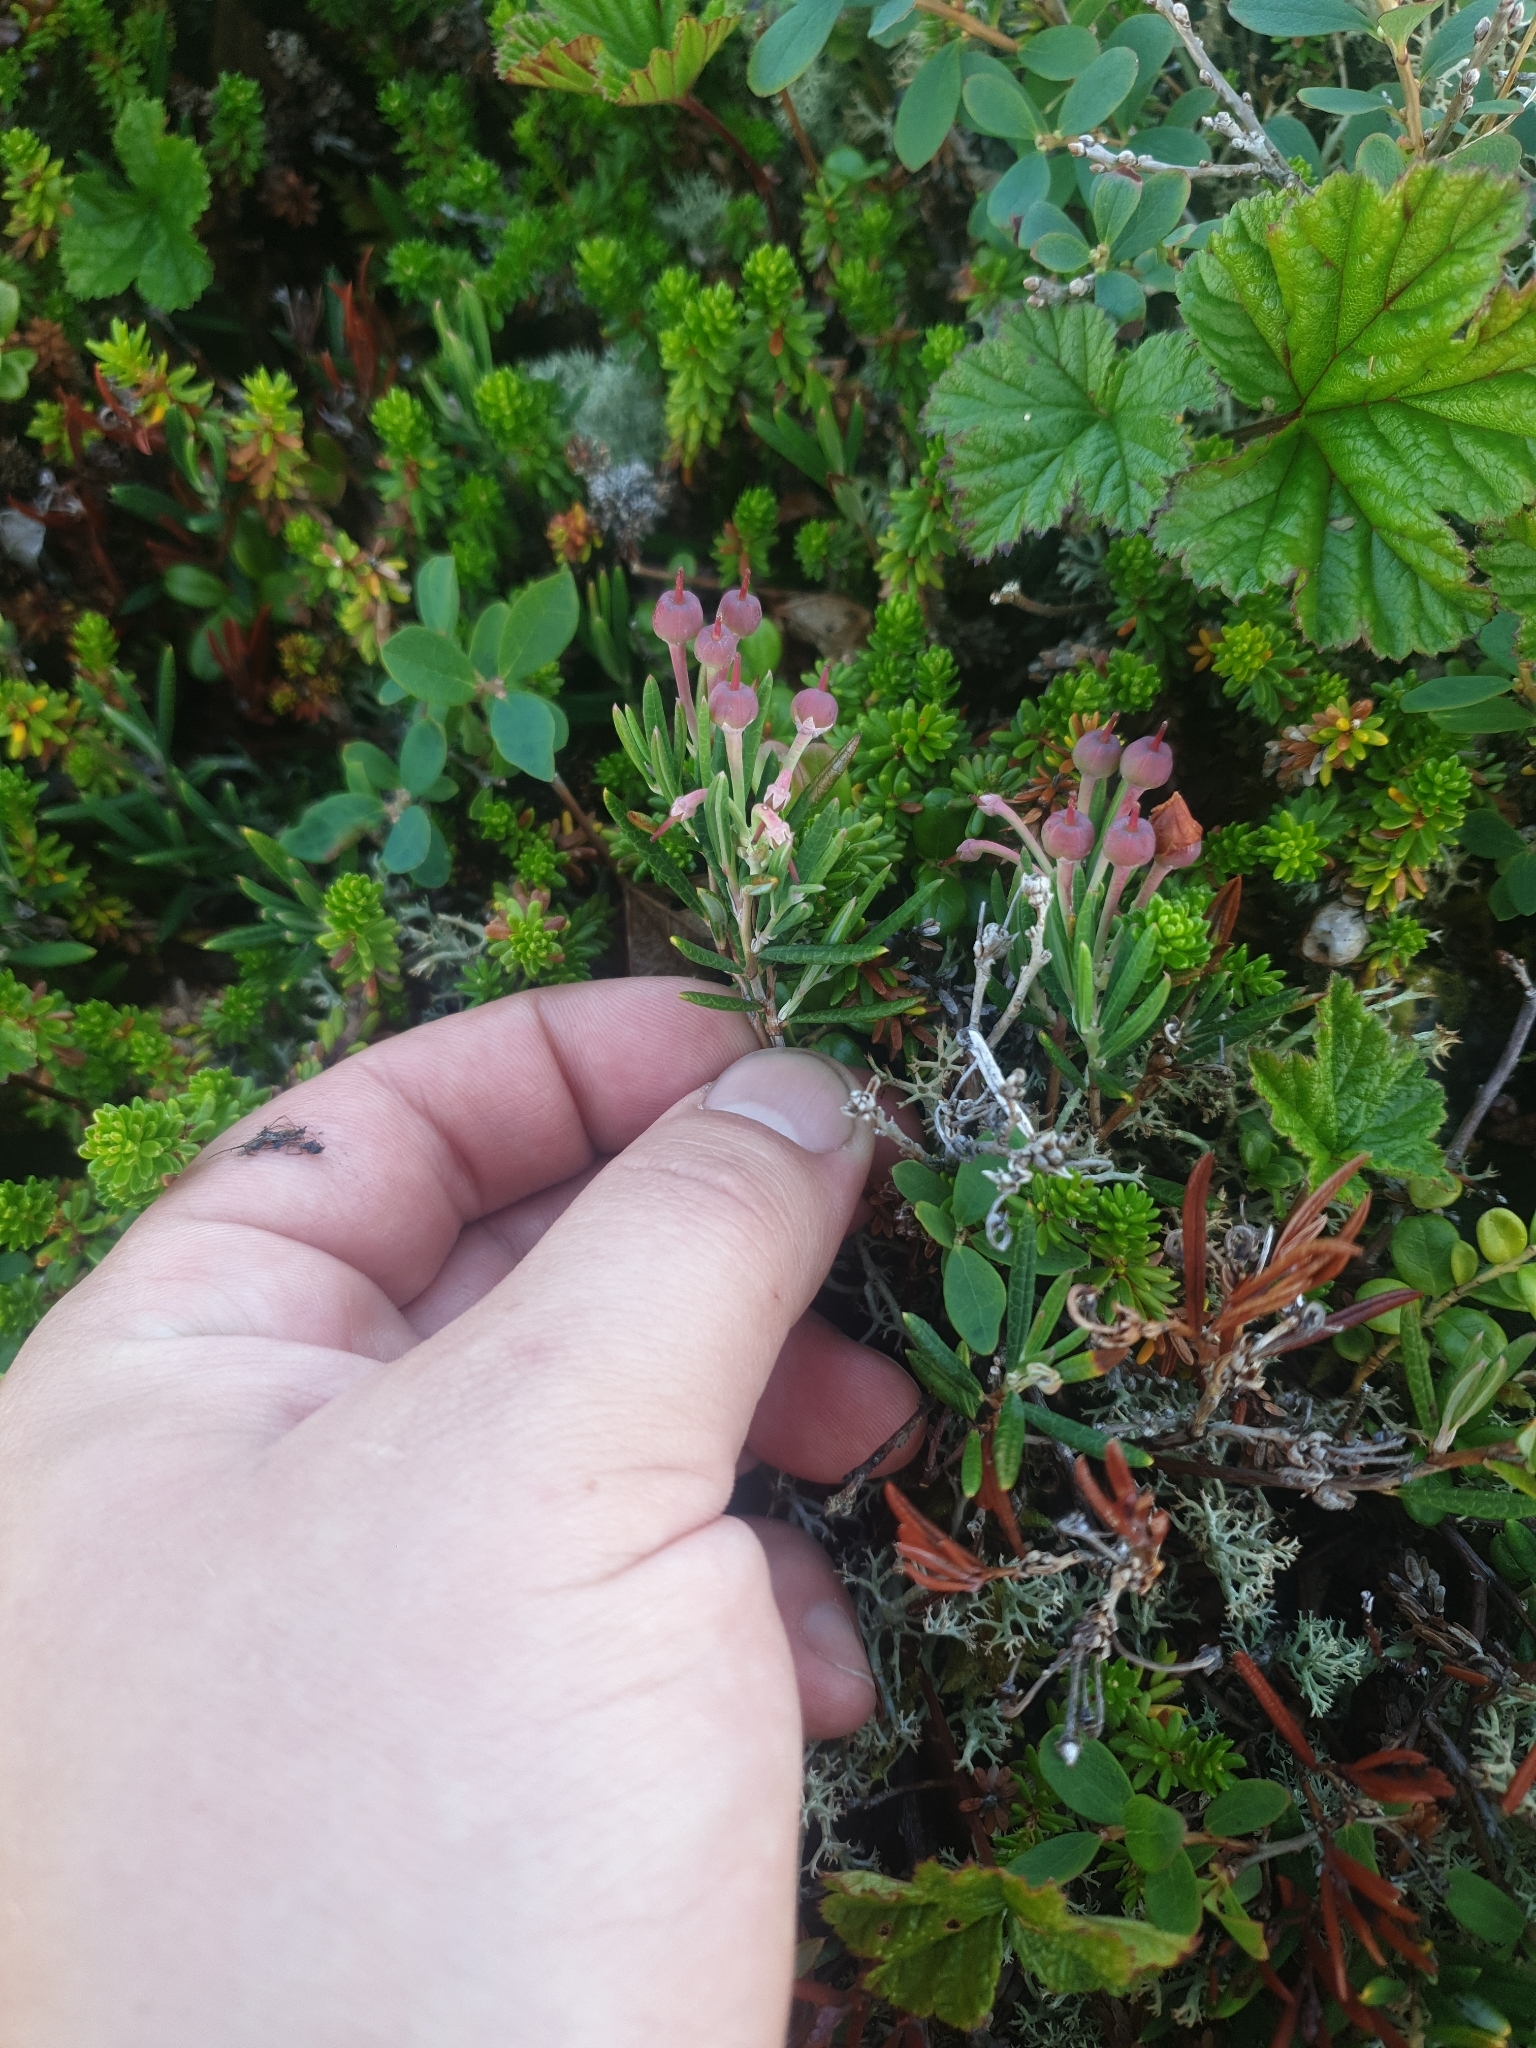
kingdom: Plantae
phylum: Tracheophyta
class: Magnoliopsida
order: Ericales
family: Ericaceae
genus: Andromeda
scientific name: Andromeda polifolia
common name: Bog-rosemary
